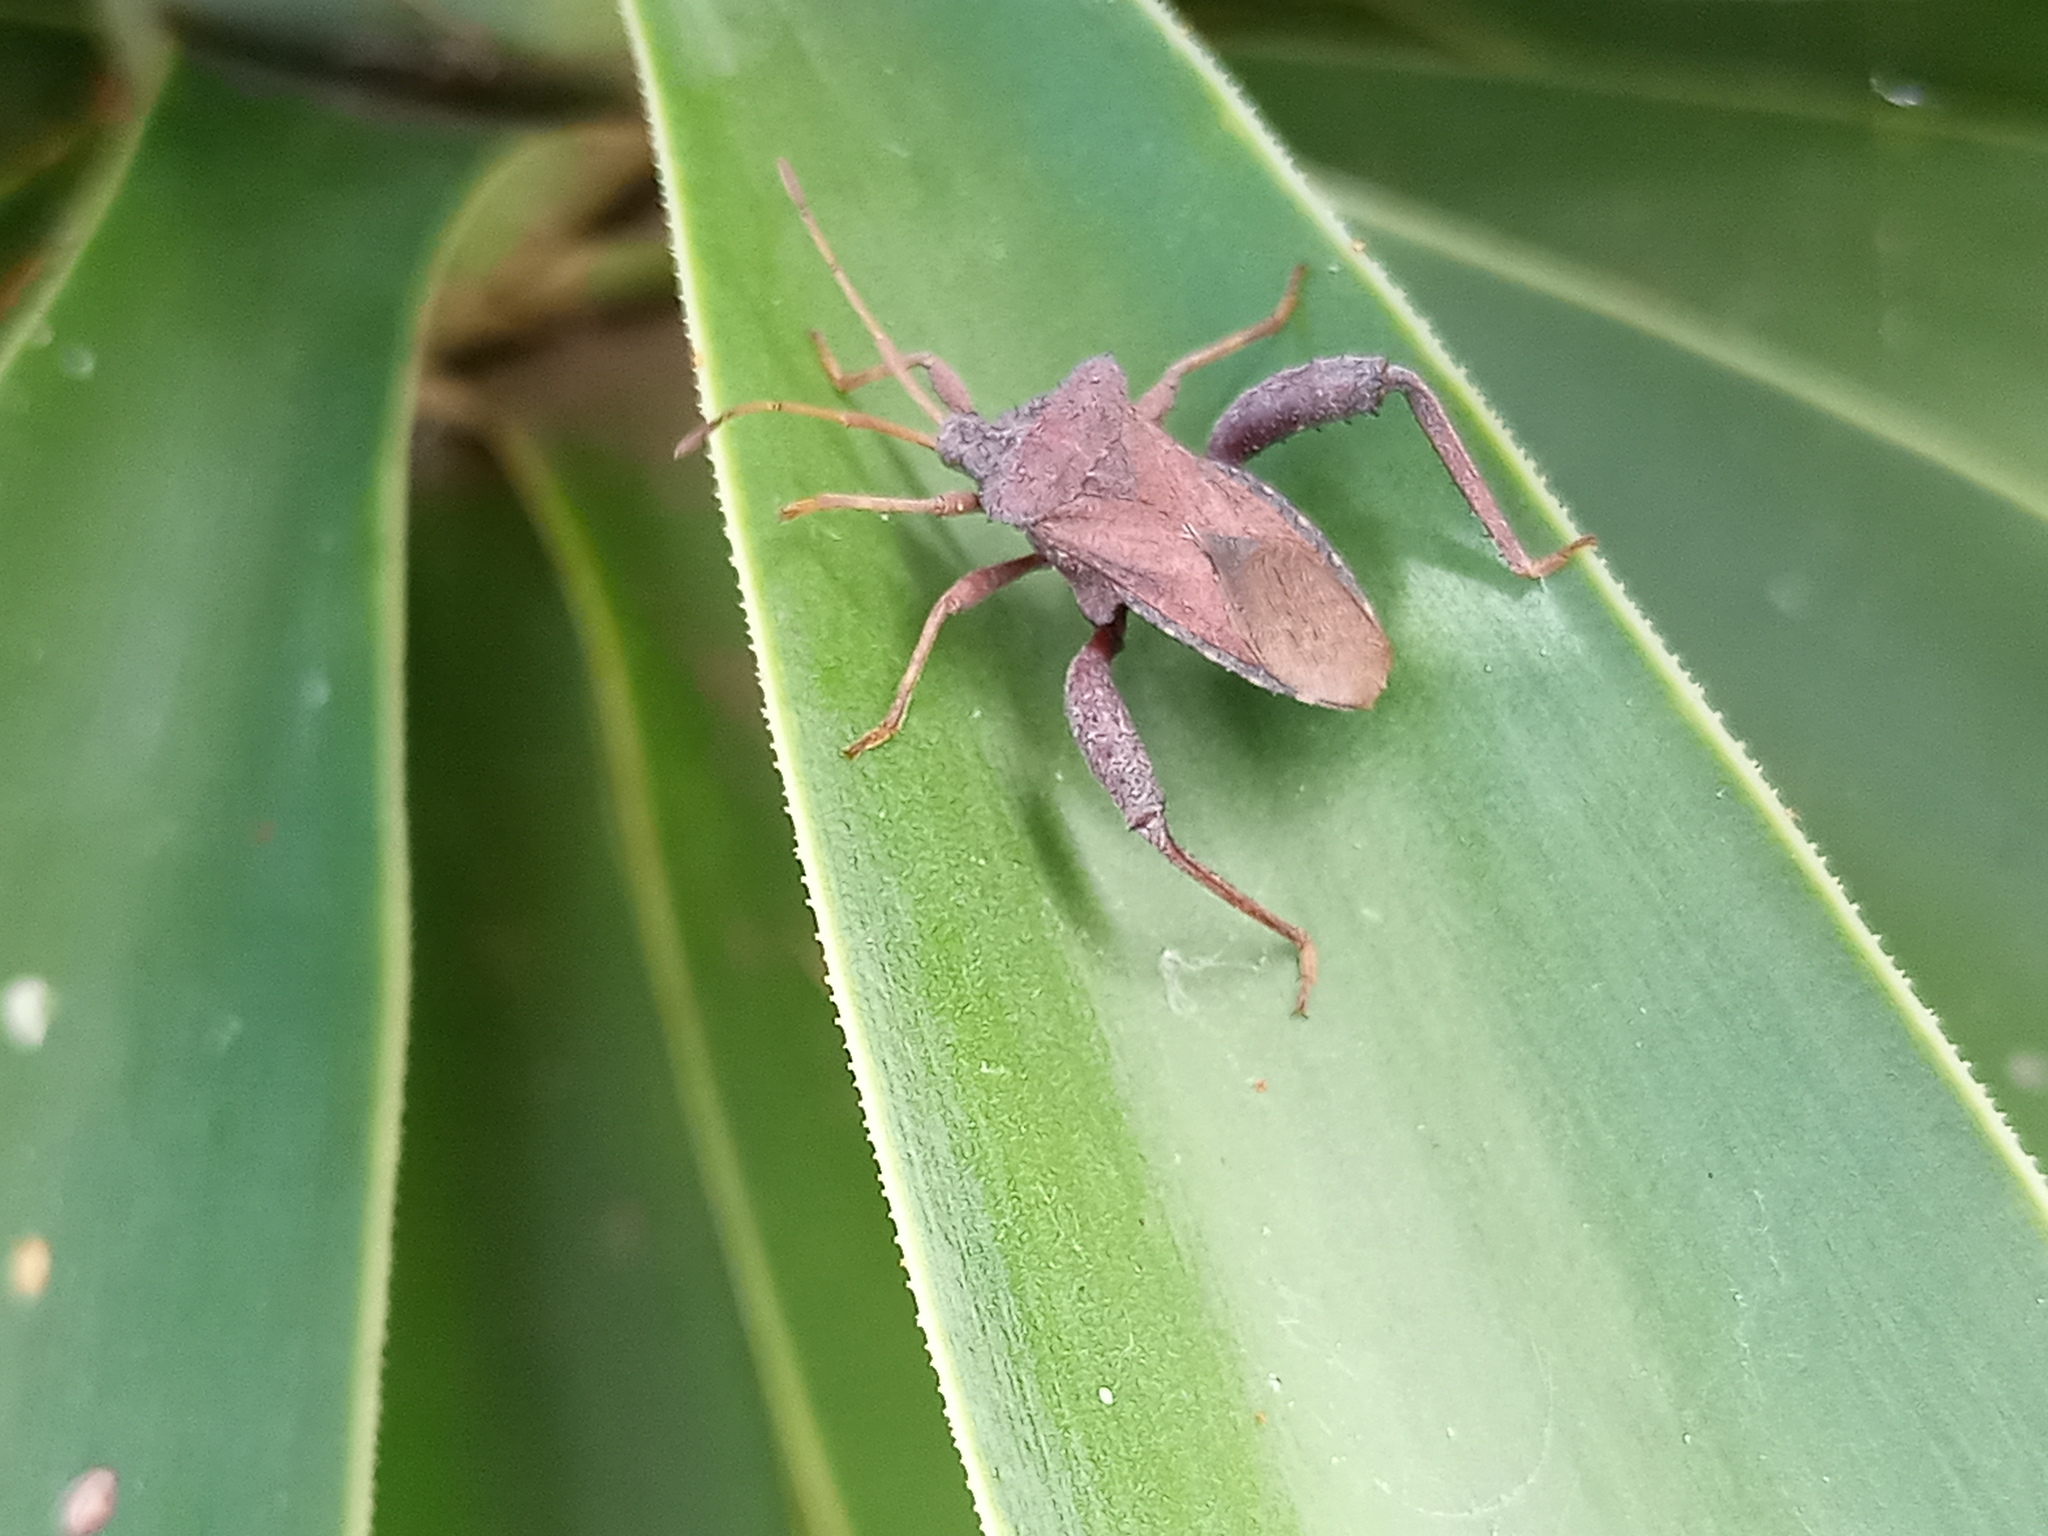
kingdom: Animalia
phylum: Arthropoda
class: Insecta
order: Hemiptera
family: Coreidae
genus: Camptischium
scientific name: Camptischium clavipes
